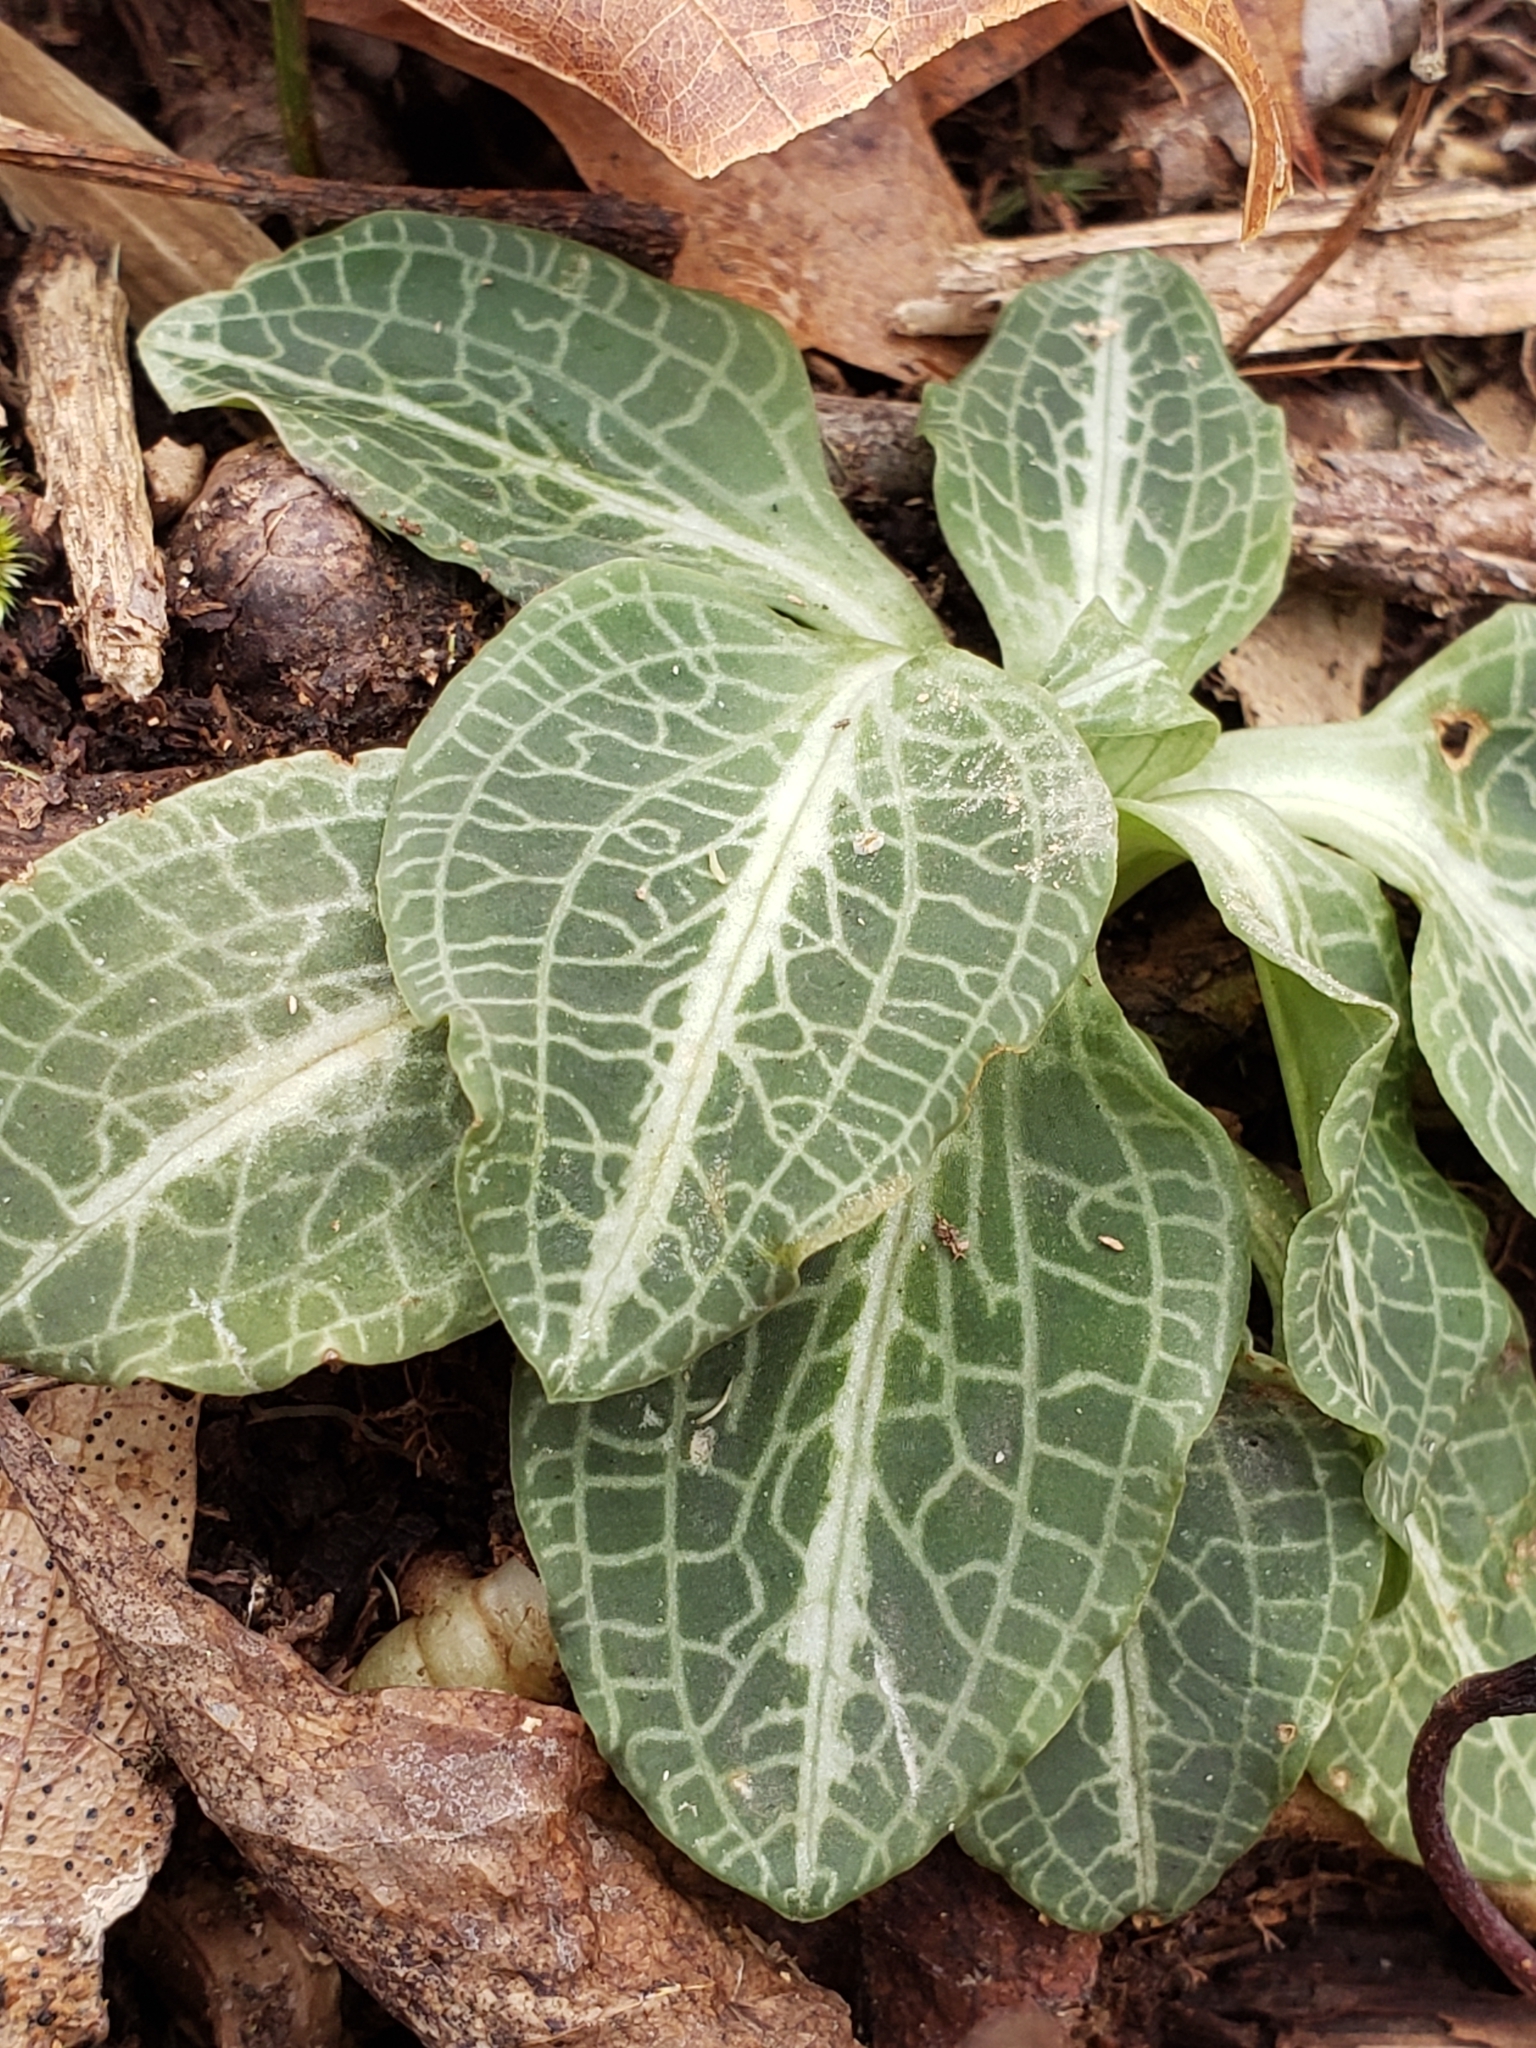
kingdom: Plantae
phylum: Tracheophyta
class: Liliopsida
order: Asparagales
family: Orchidaceae
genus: Goodyera
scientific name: Goodyera pubescens
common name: Downy rattlesnake-plantain
